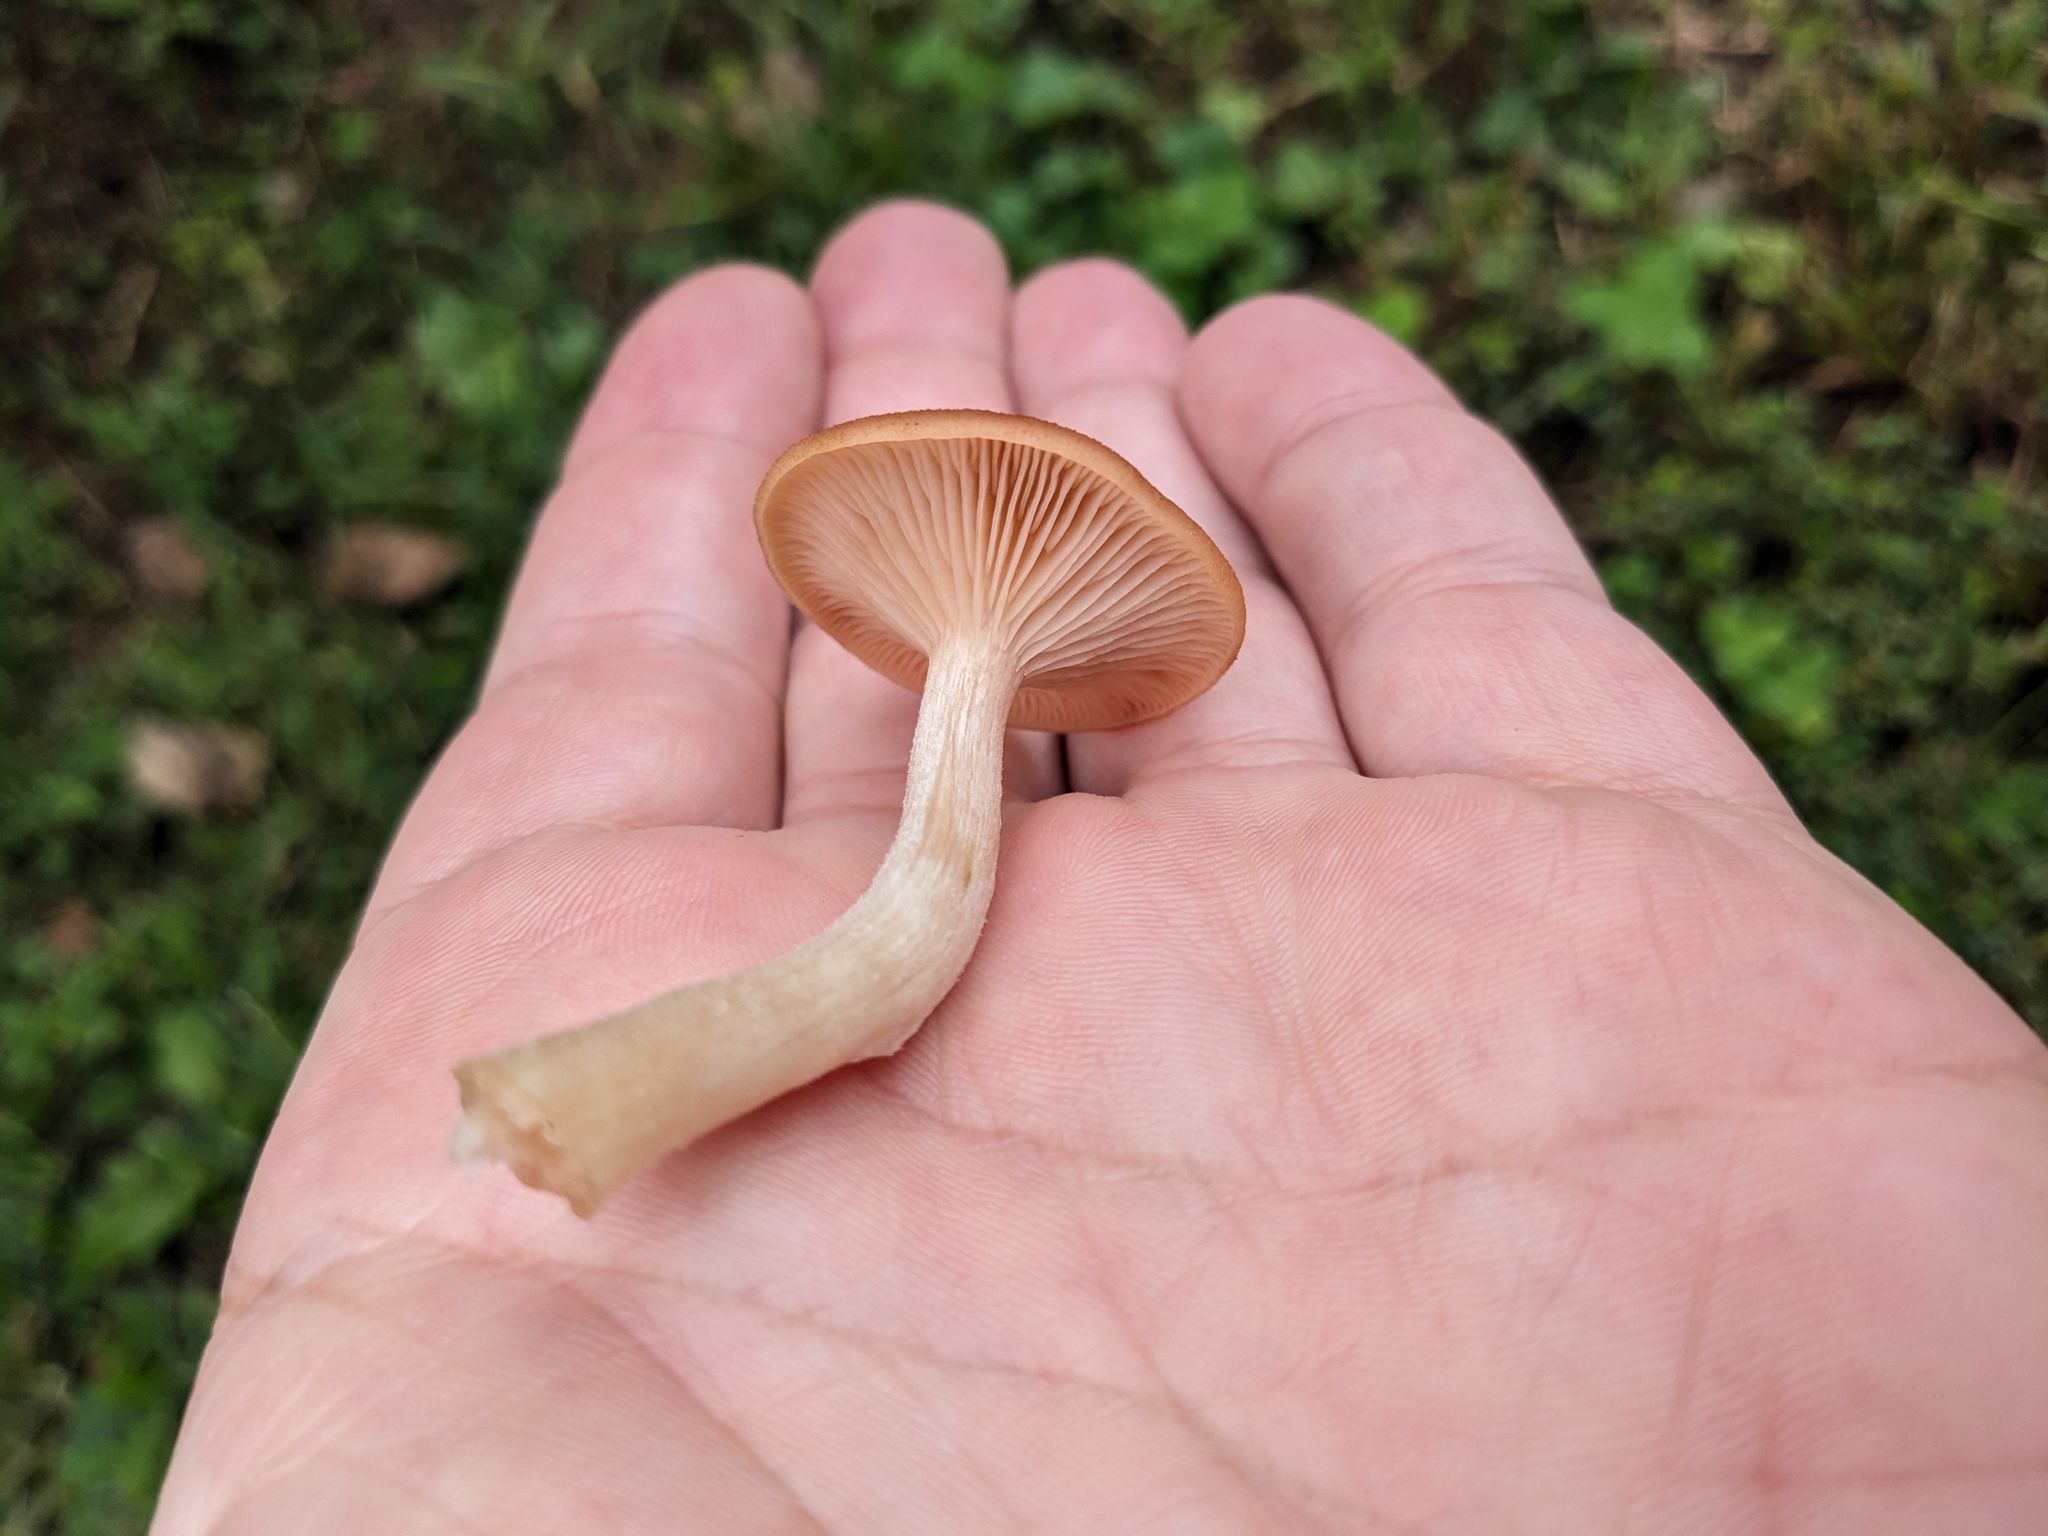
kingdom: Fungi
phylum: Basidiomycota
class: Agaricomycetes
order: Agaricales
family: Physalacriaceae
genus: Desarmillaria
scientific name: Desarmillaria caespitosa
